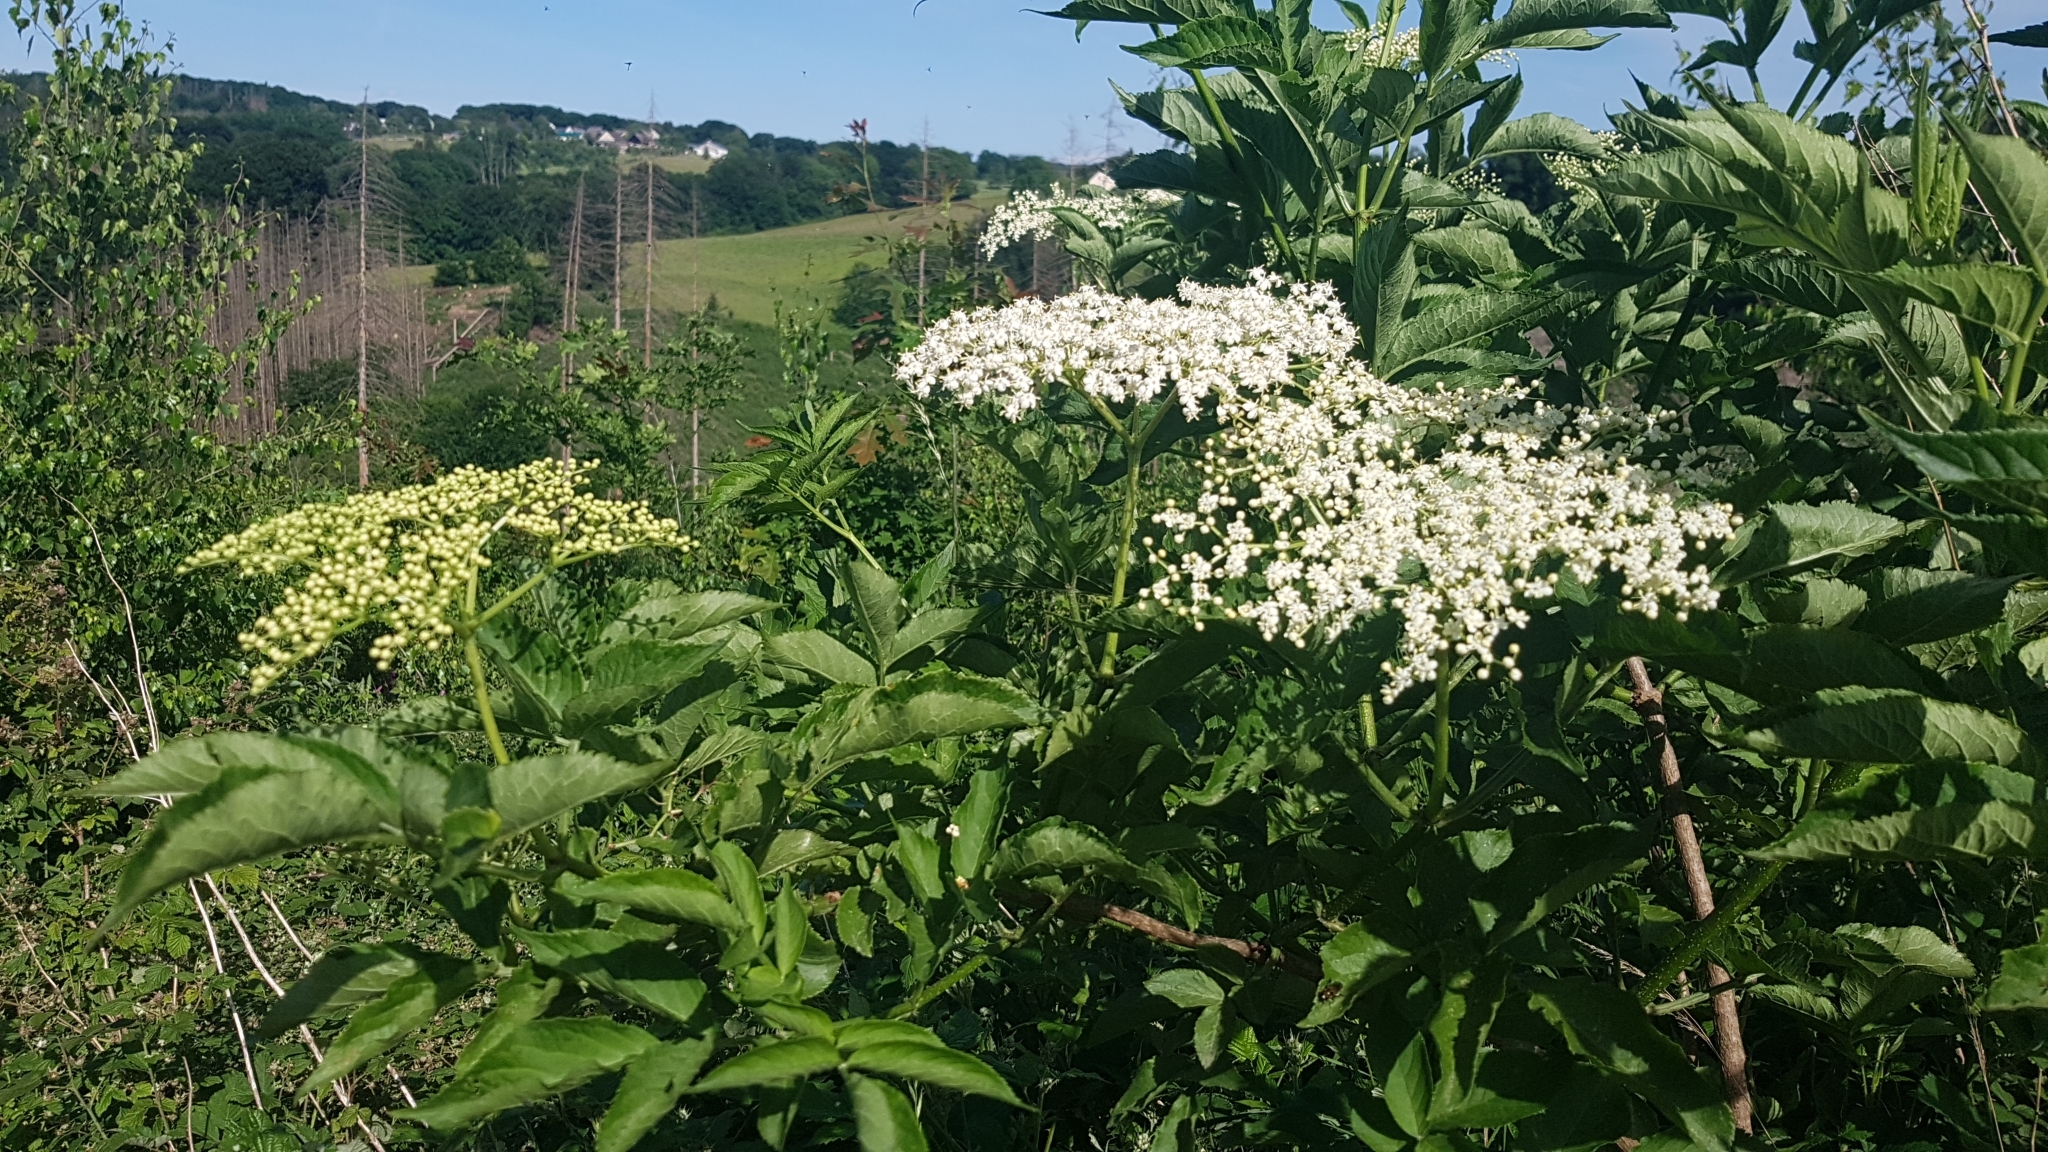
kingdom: Plantae
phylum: Tracheophyta
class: Magnoliopsida
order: Dipsacales
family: Viburnaceae
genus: Sambucus
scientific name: Sambucus nigra
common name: Elder
